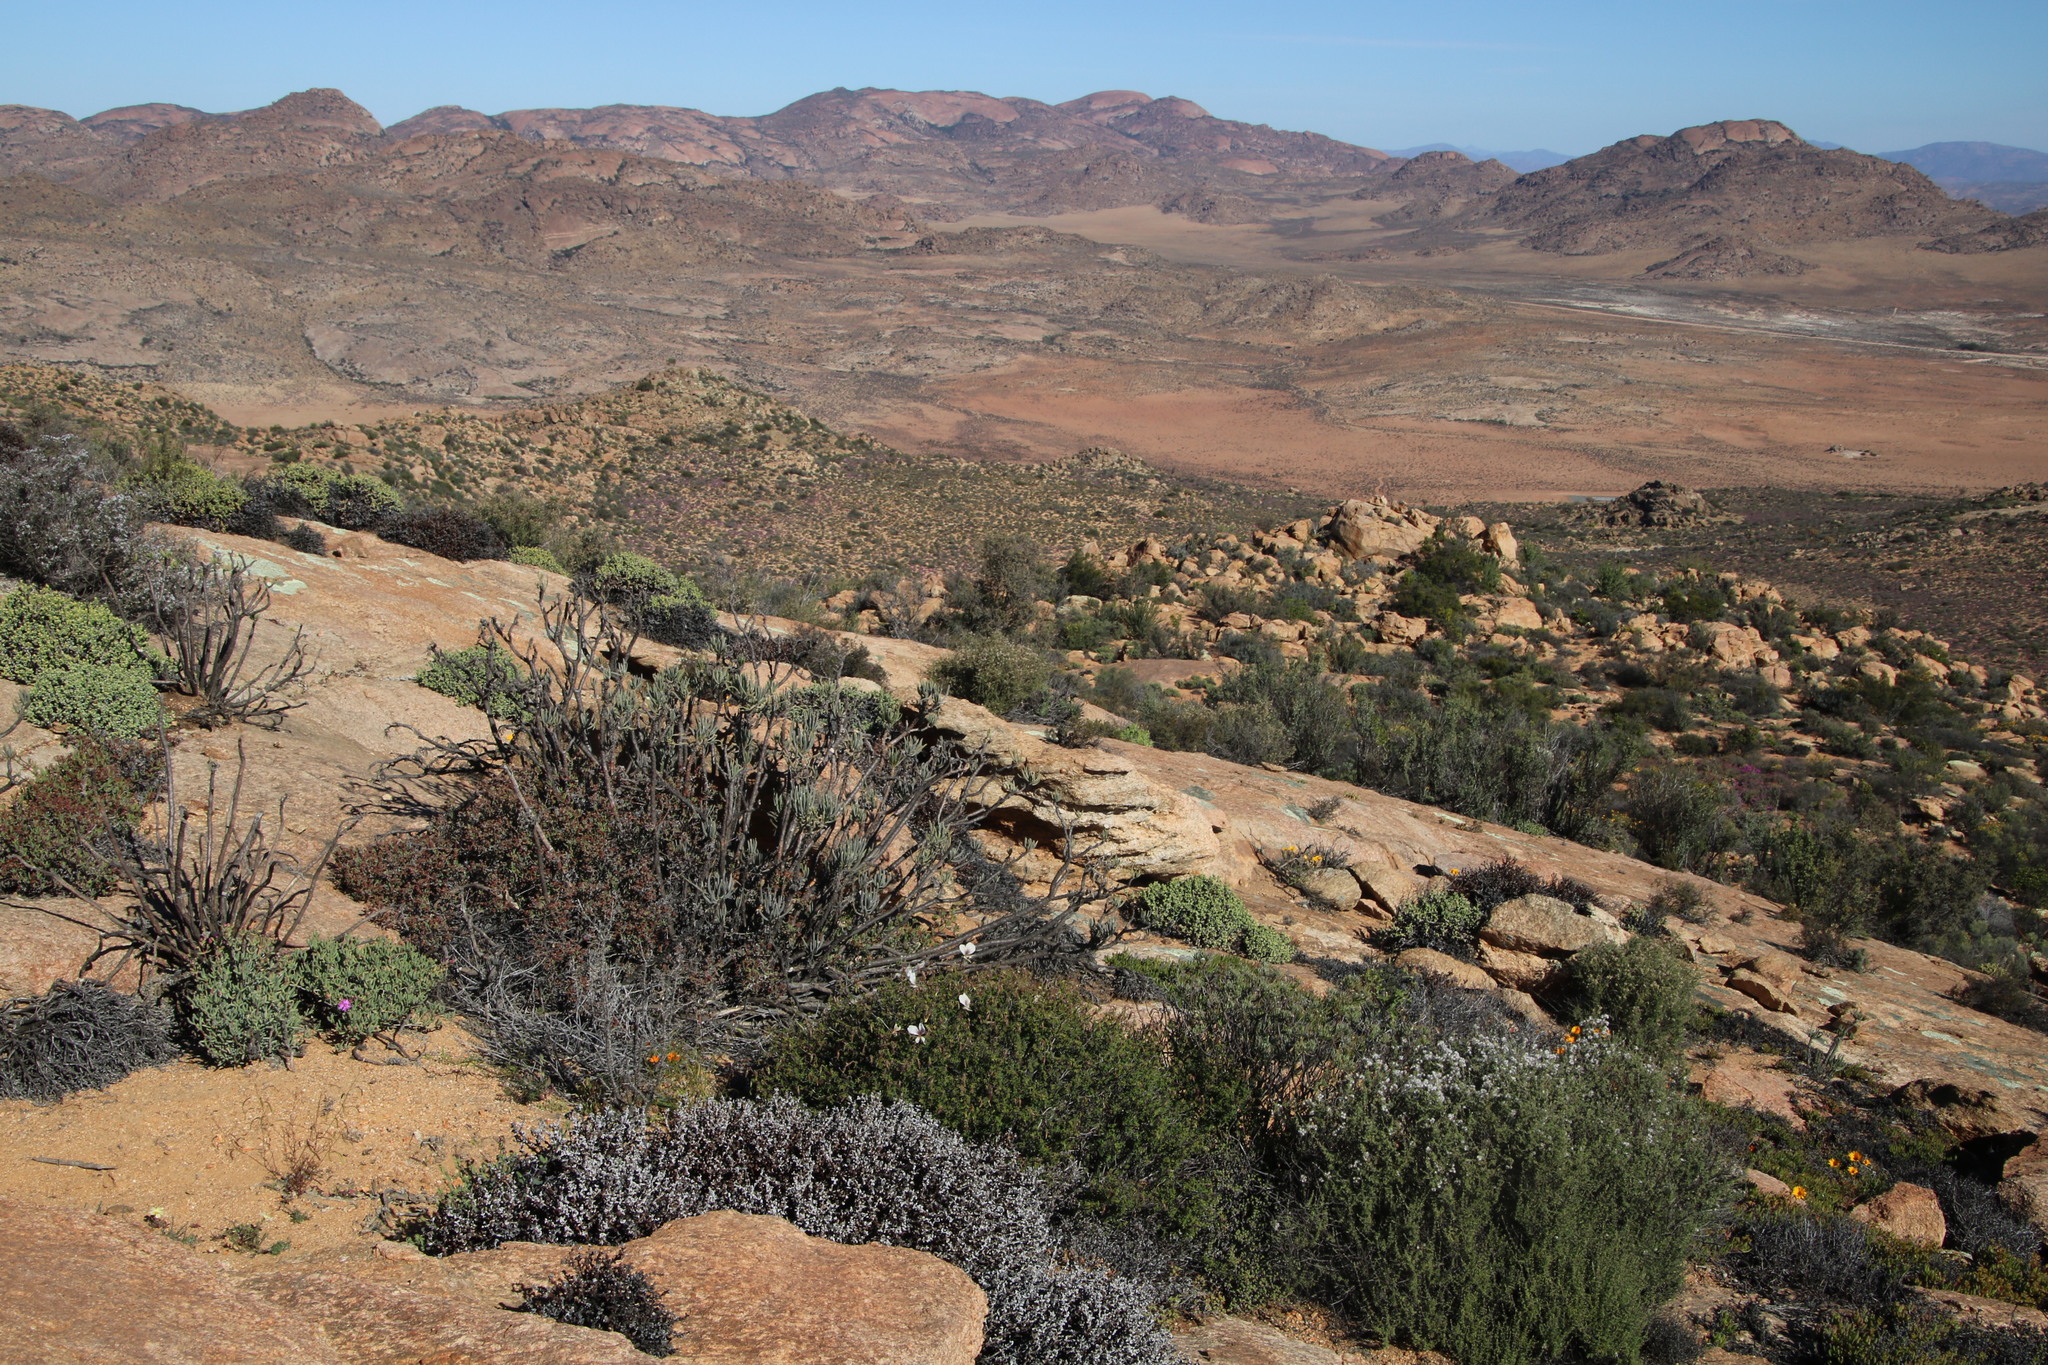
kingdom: Plantae
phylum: Tracheophyta
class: Magnoliopsida
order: Geraniales
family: Geraniaceae
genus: Pelargonium
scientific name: Pelargonium praemorsum
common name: Quinate-leaf pelargonium
